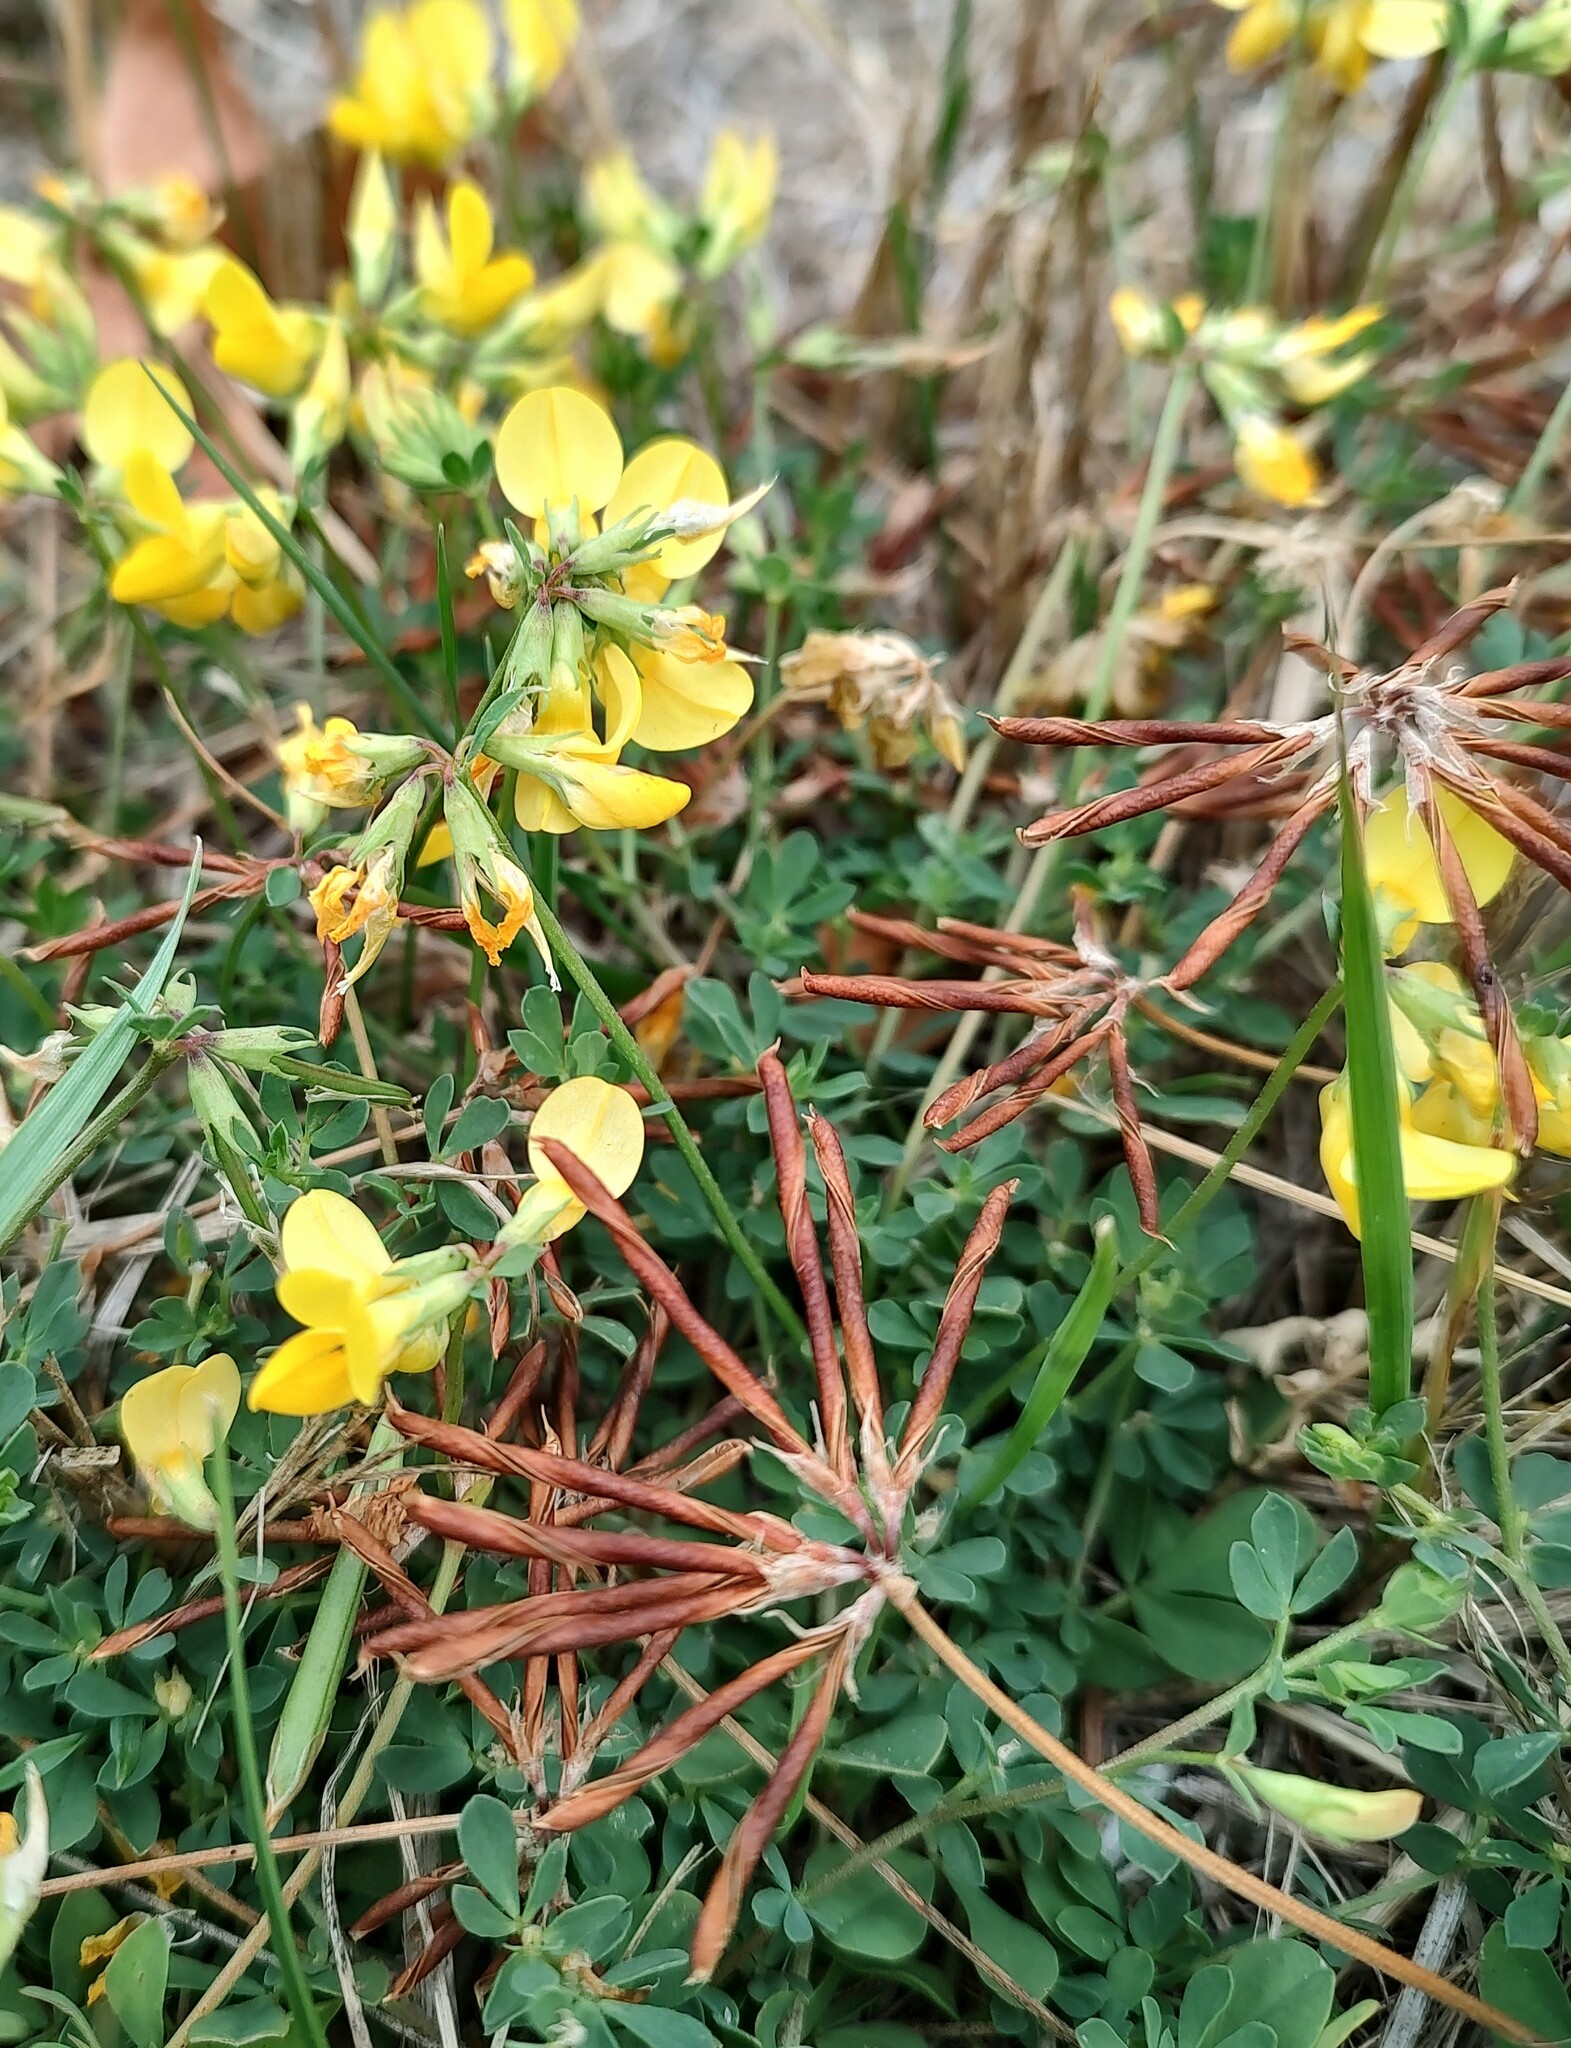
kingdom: Plantae
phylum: Tracheophyta
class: Magnoliopsida
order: Fabales
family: Fabaceae
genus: Lotus
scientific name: Lotus corniculatus
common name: Common bird's-foot-trefoil
